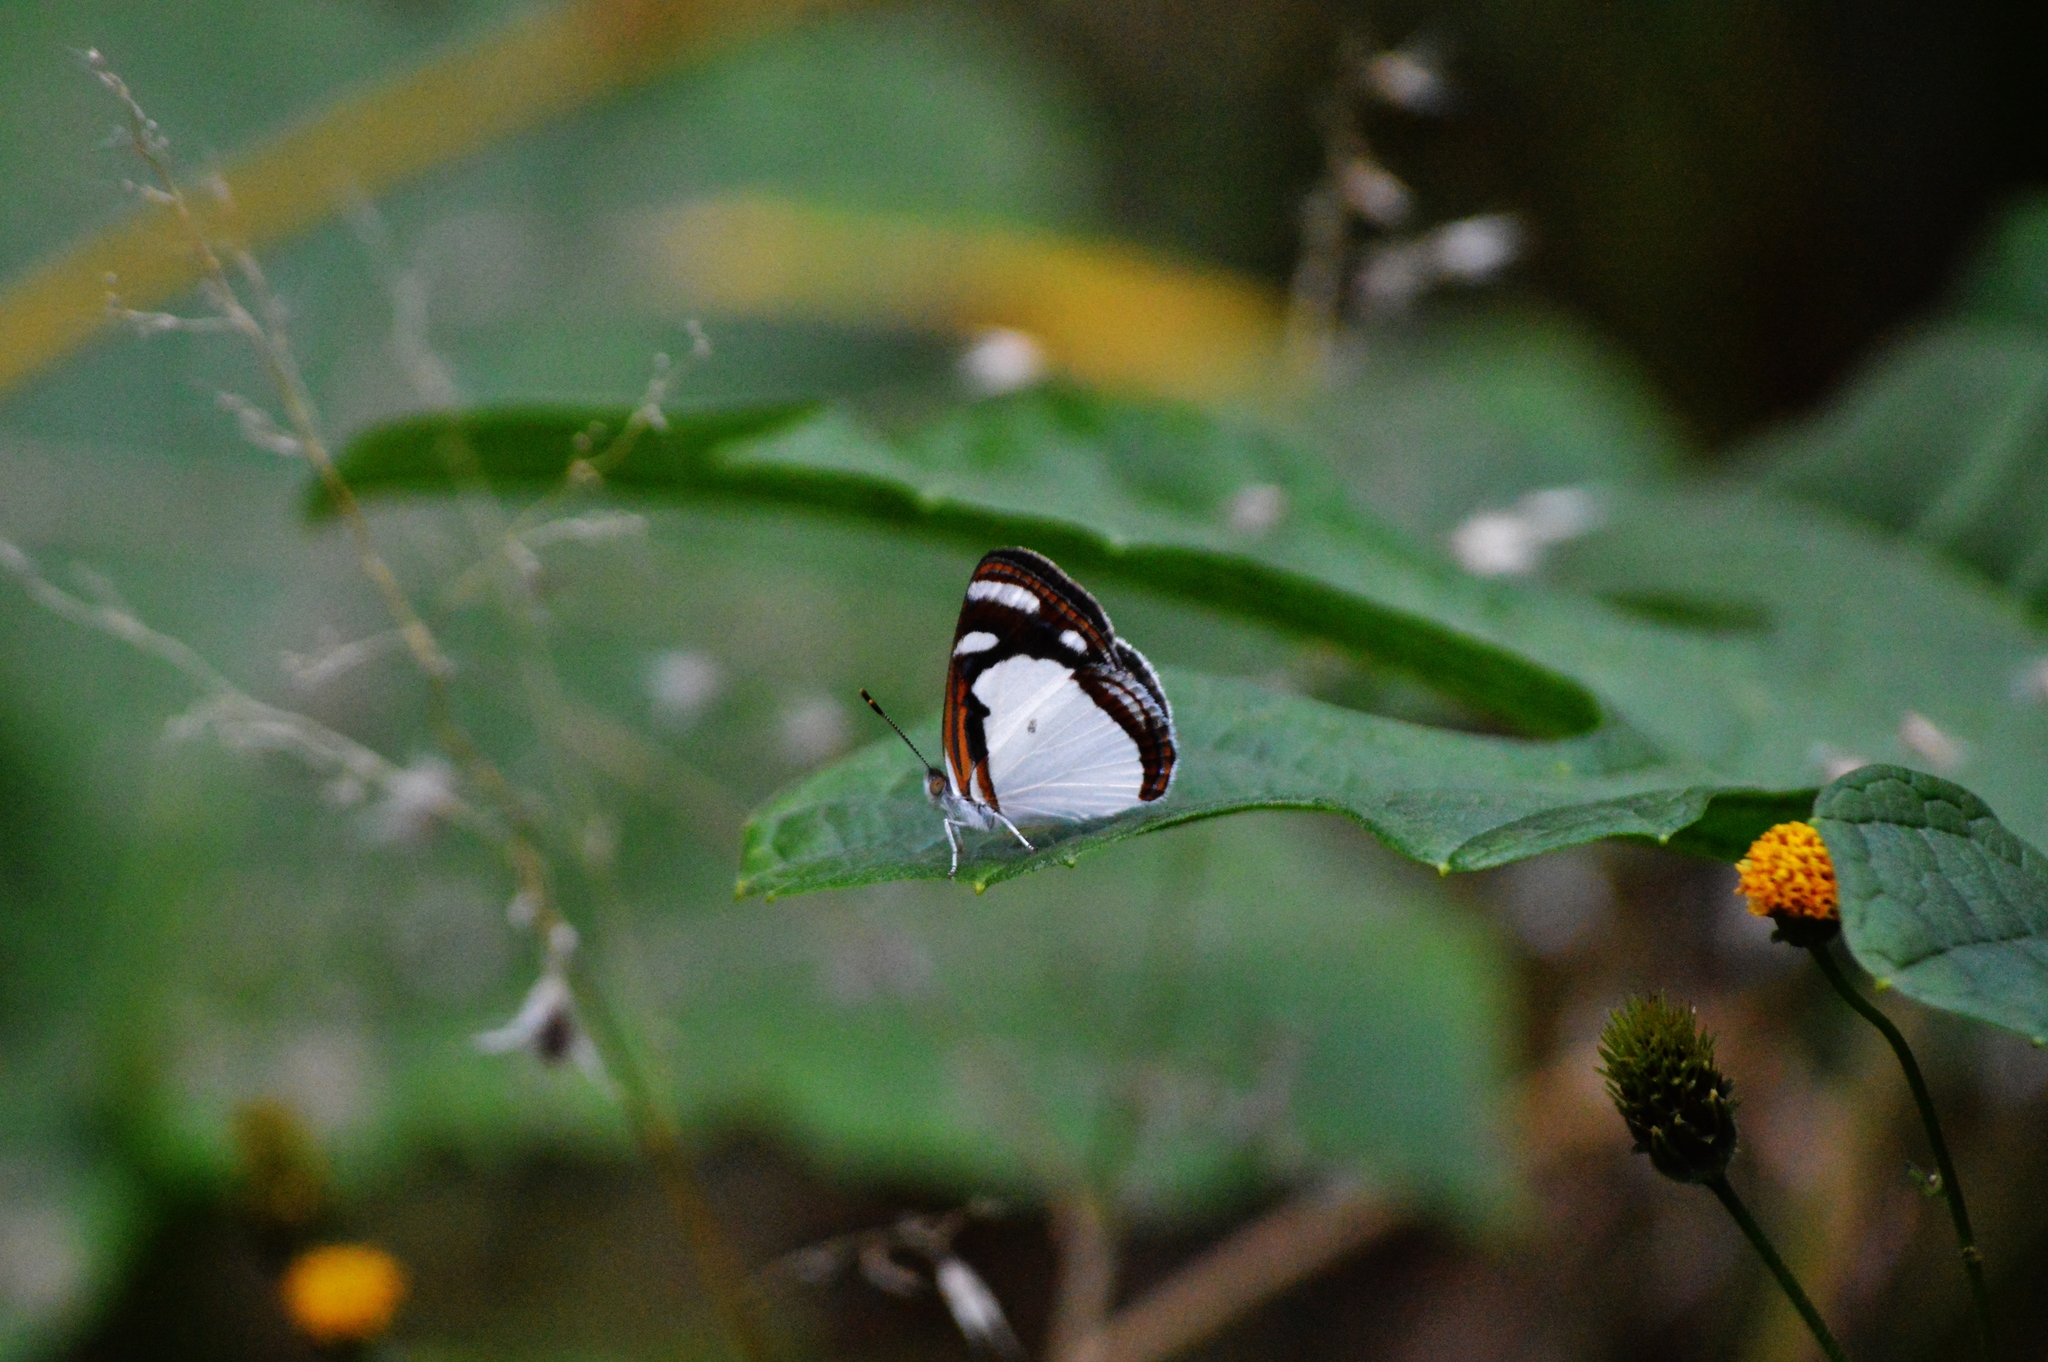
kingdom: Animalia
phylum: Arthropoda
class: Insecta
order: Lepidoptera
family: Nymphalidae
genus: Dynamine
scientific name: Dynamine agacles
